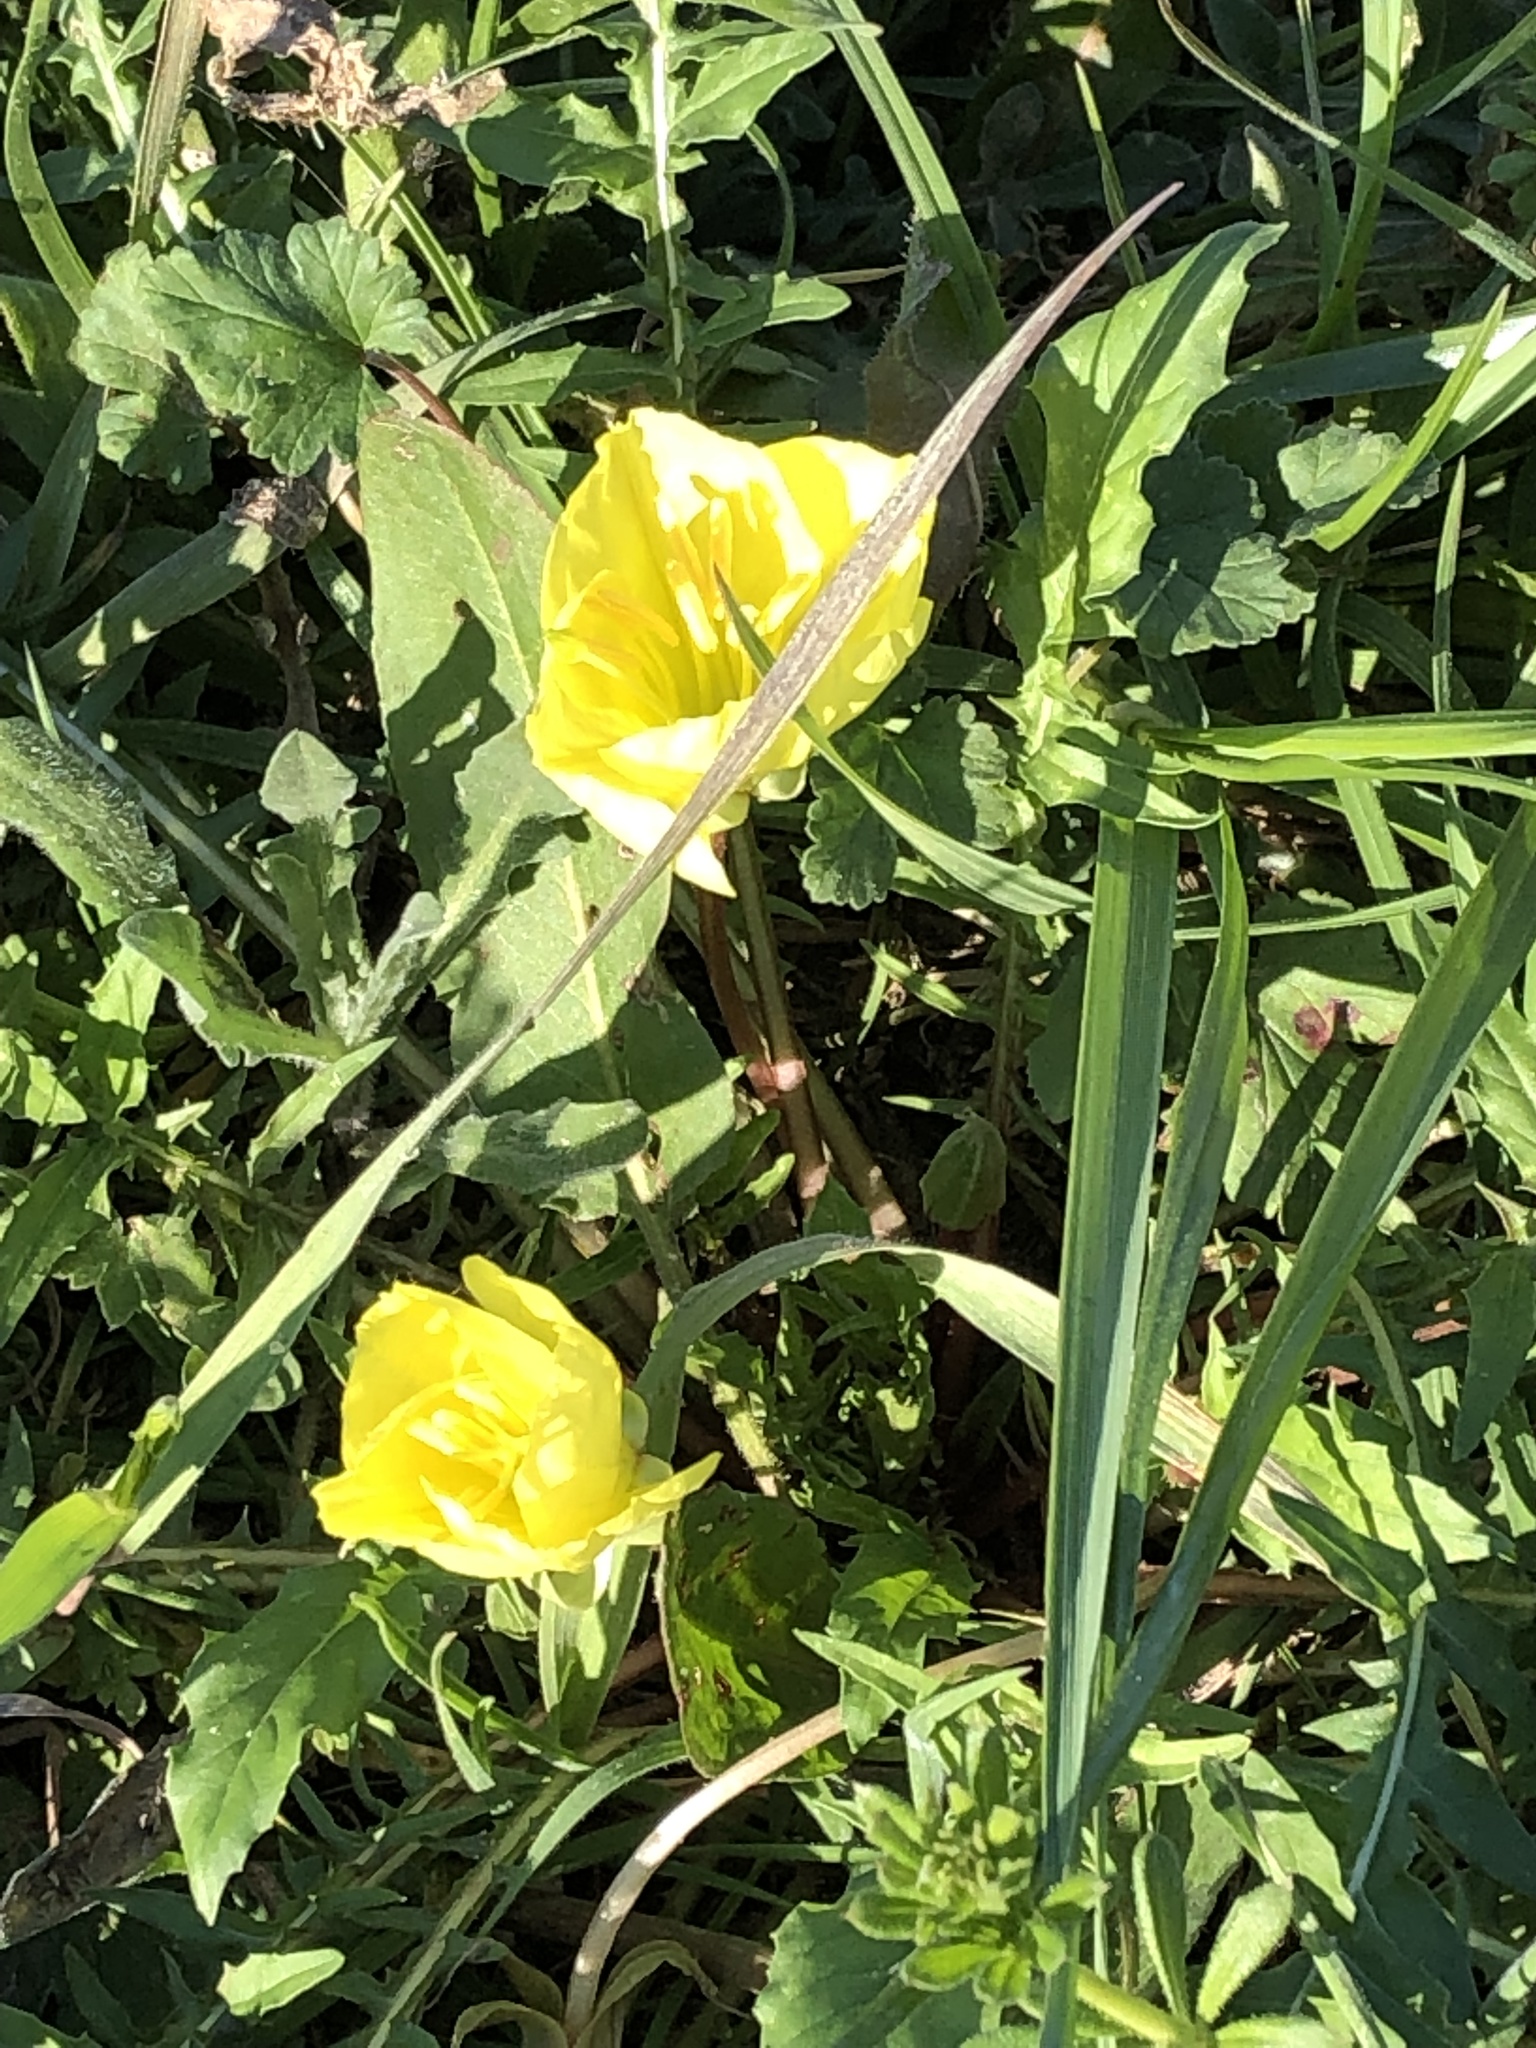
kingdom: Plantae
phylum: Tracheophyta
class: Magnoliopsida
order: Myrtales
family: Onagraceae
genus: Oenothera
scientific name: Oenothera triloba
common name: Sessile evening-primrose
